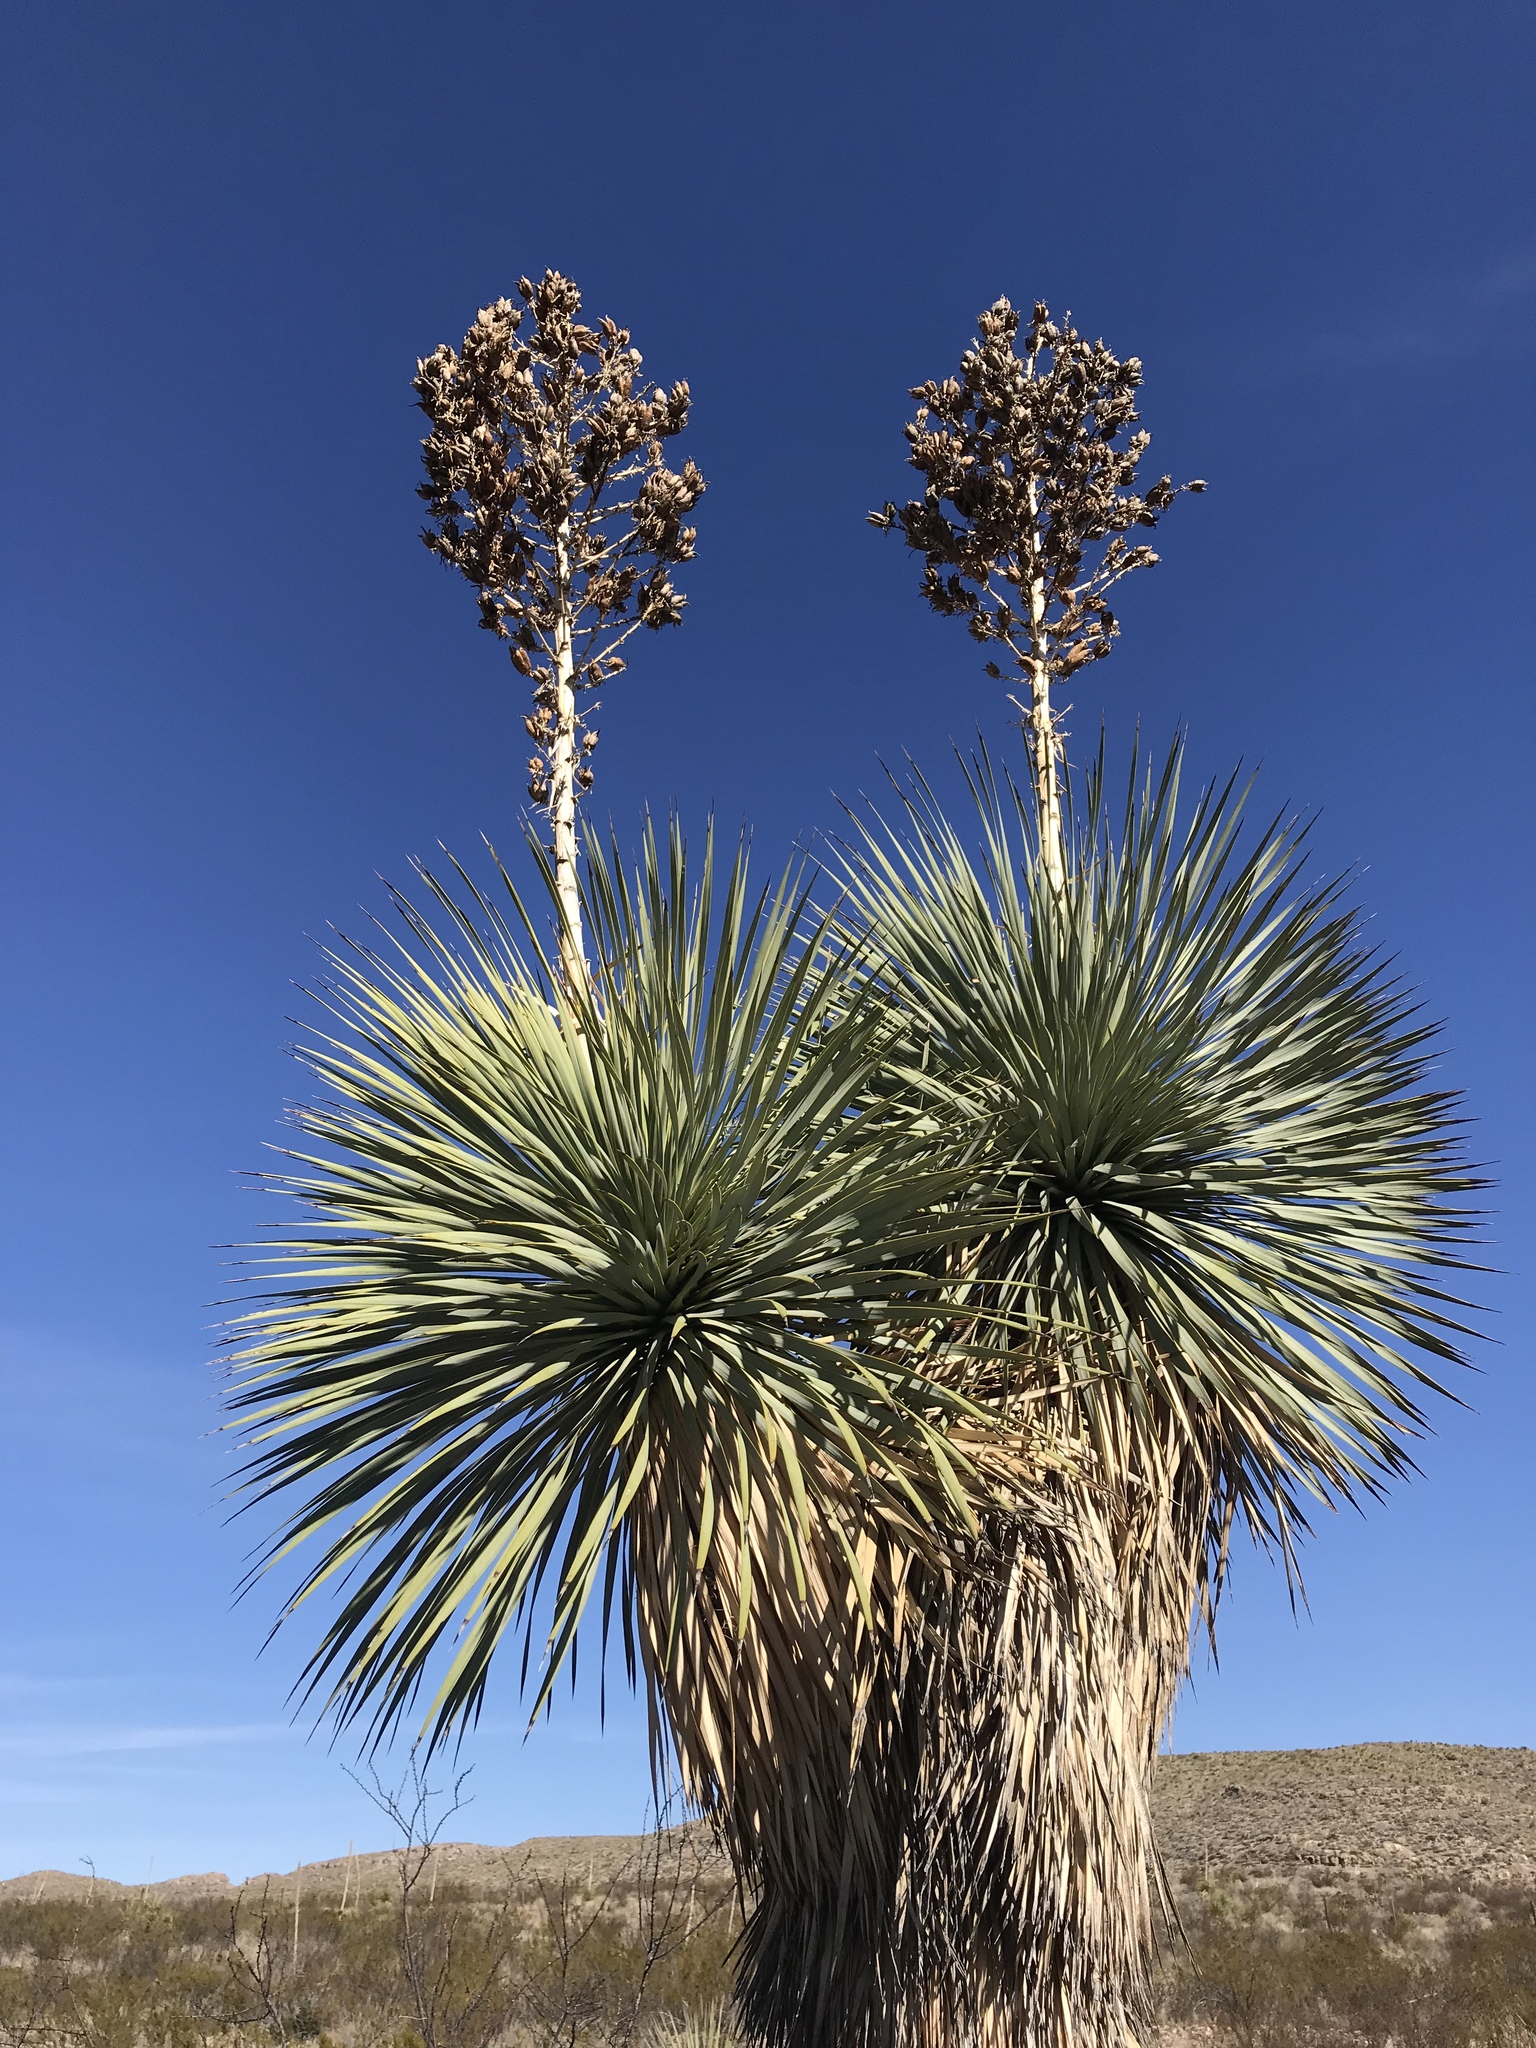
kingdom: Plantae
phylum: Tracheophyta
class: Liliopsida
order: Asparagales
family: Asparagaceae
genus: Yucca
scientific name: Yucca rostrata
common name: Big bend yucca
